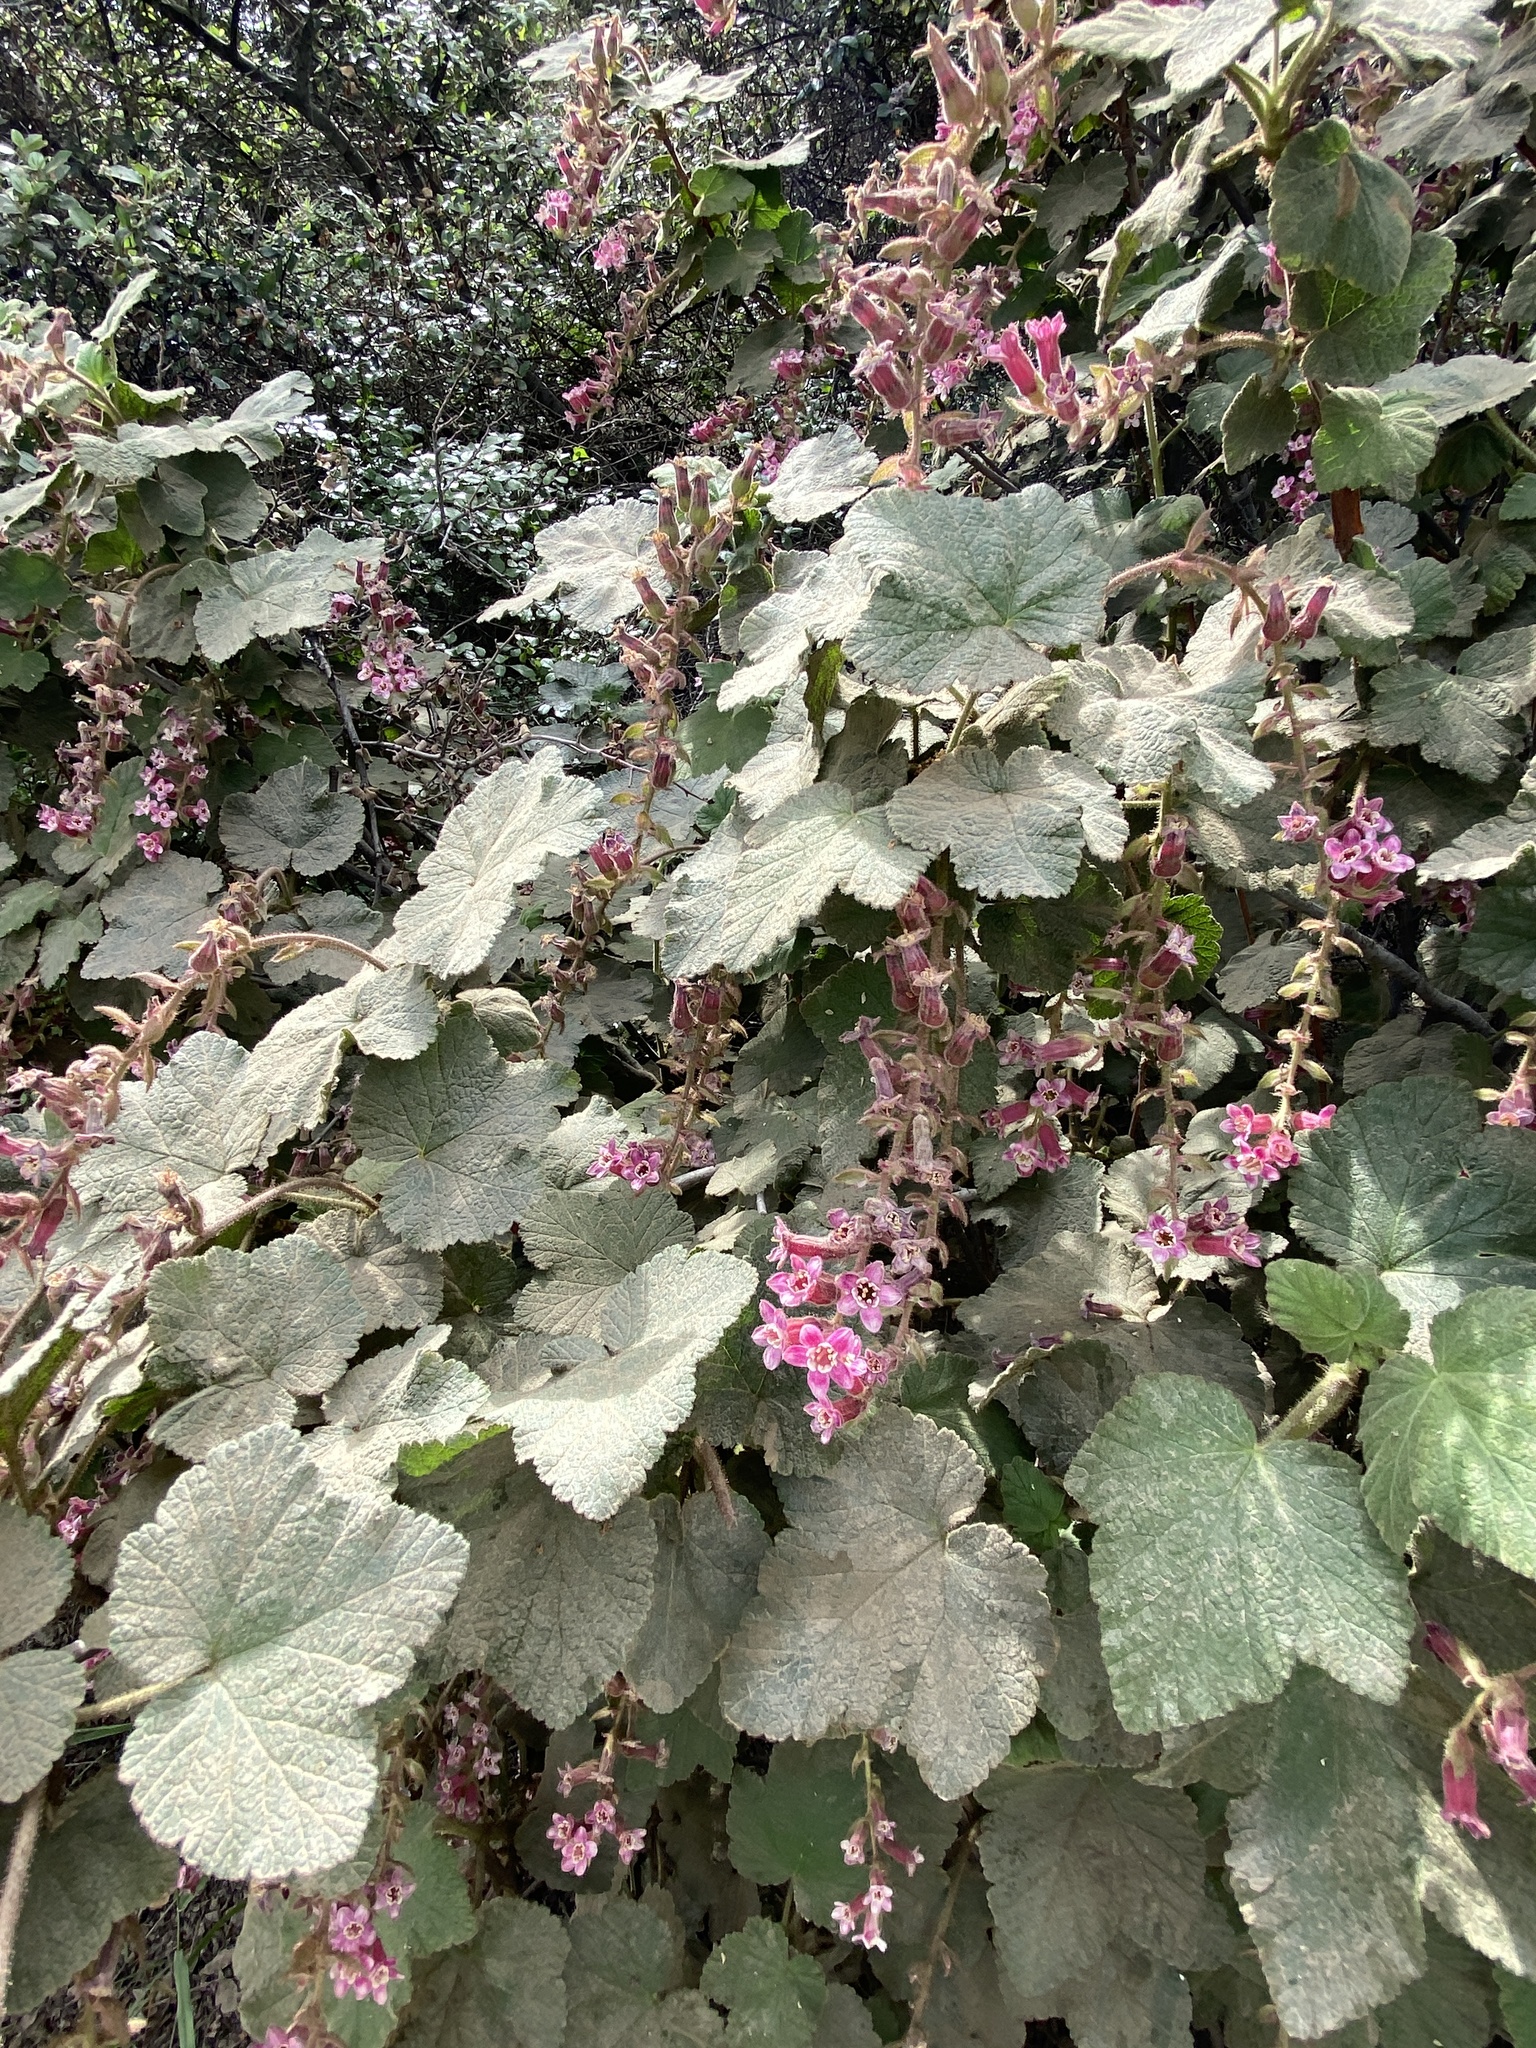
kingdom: Plantae
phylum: Tracheophyta
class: Magnoliopsida
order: Saxifragales
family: Grossulariaceae
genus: Ribes
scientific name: Ribes malvaceum
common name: Chaparral currant
